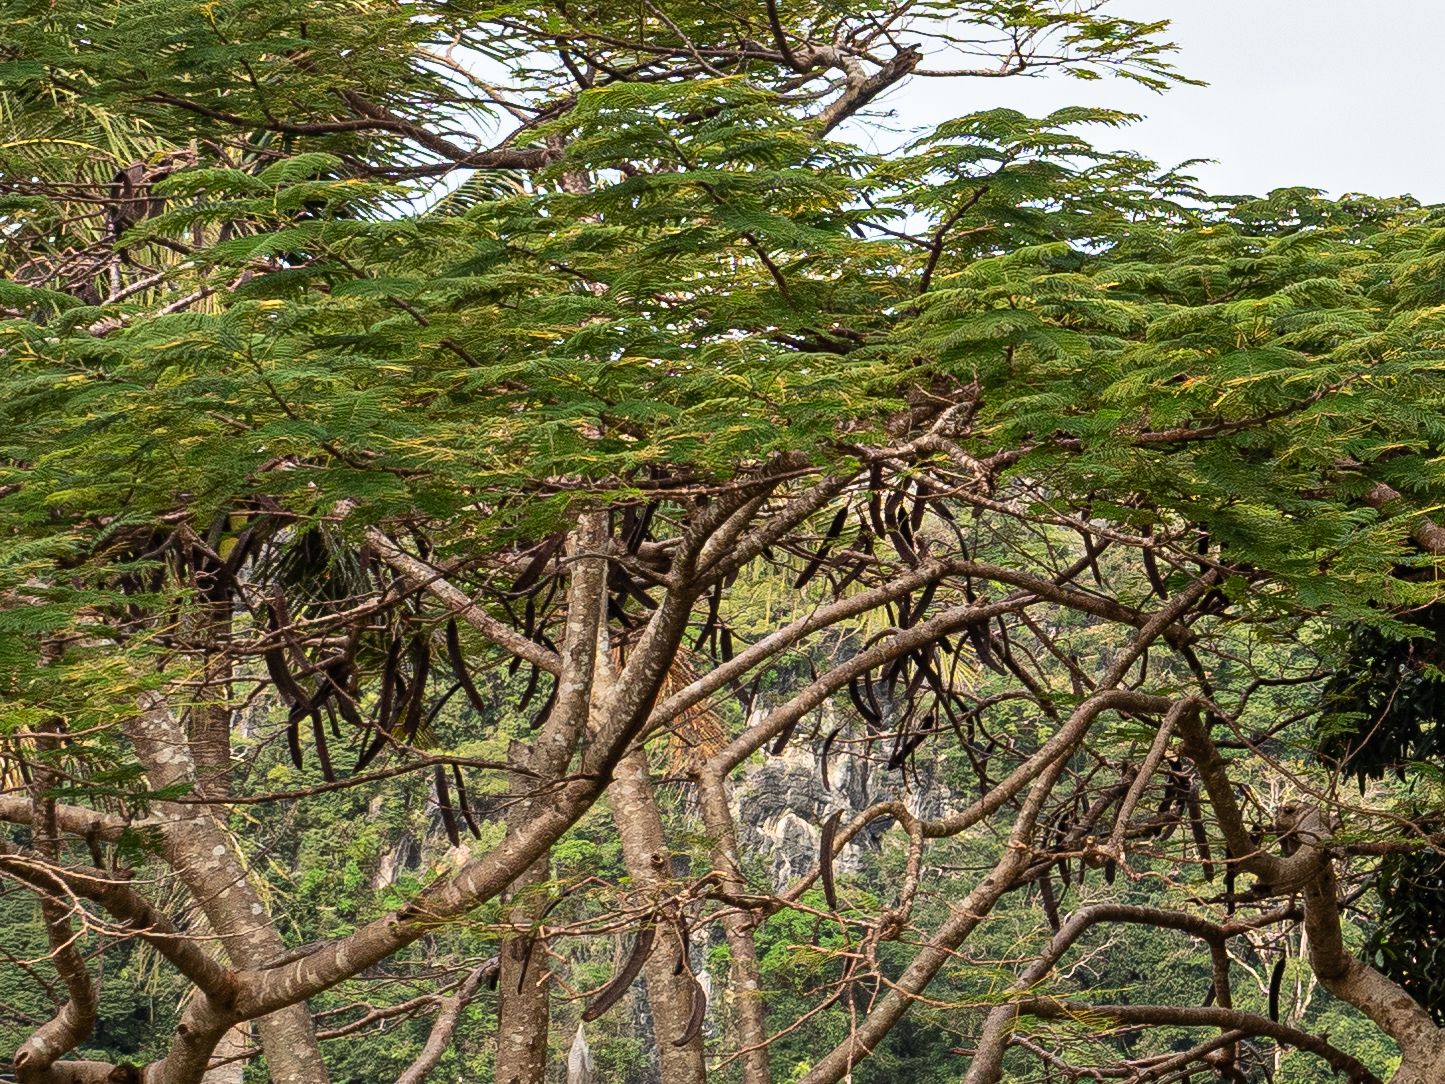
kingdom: Plantae
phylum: Tracheophyta
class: Magnoliopsida
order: Fabales
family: Fabaceae
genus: Delonix
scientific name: Delonix regia
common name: Royal poinciana
